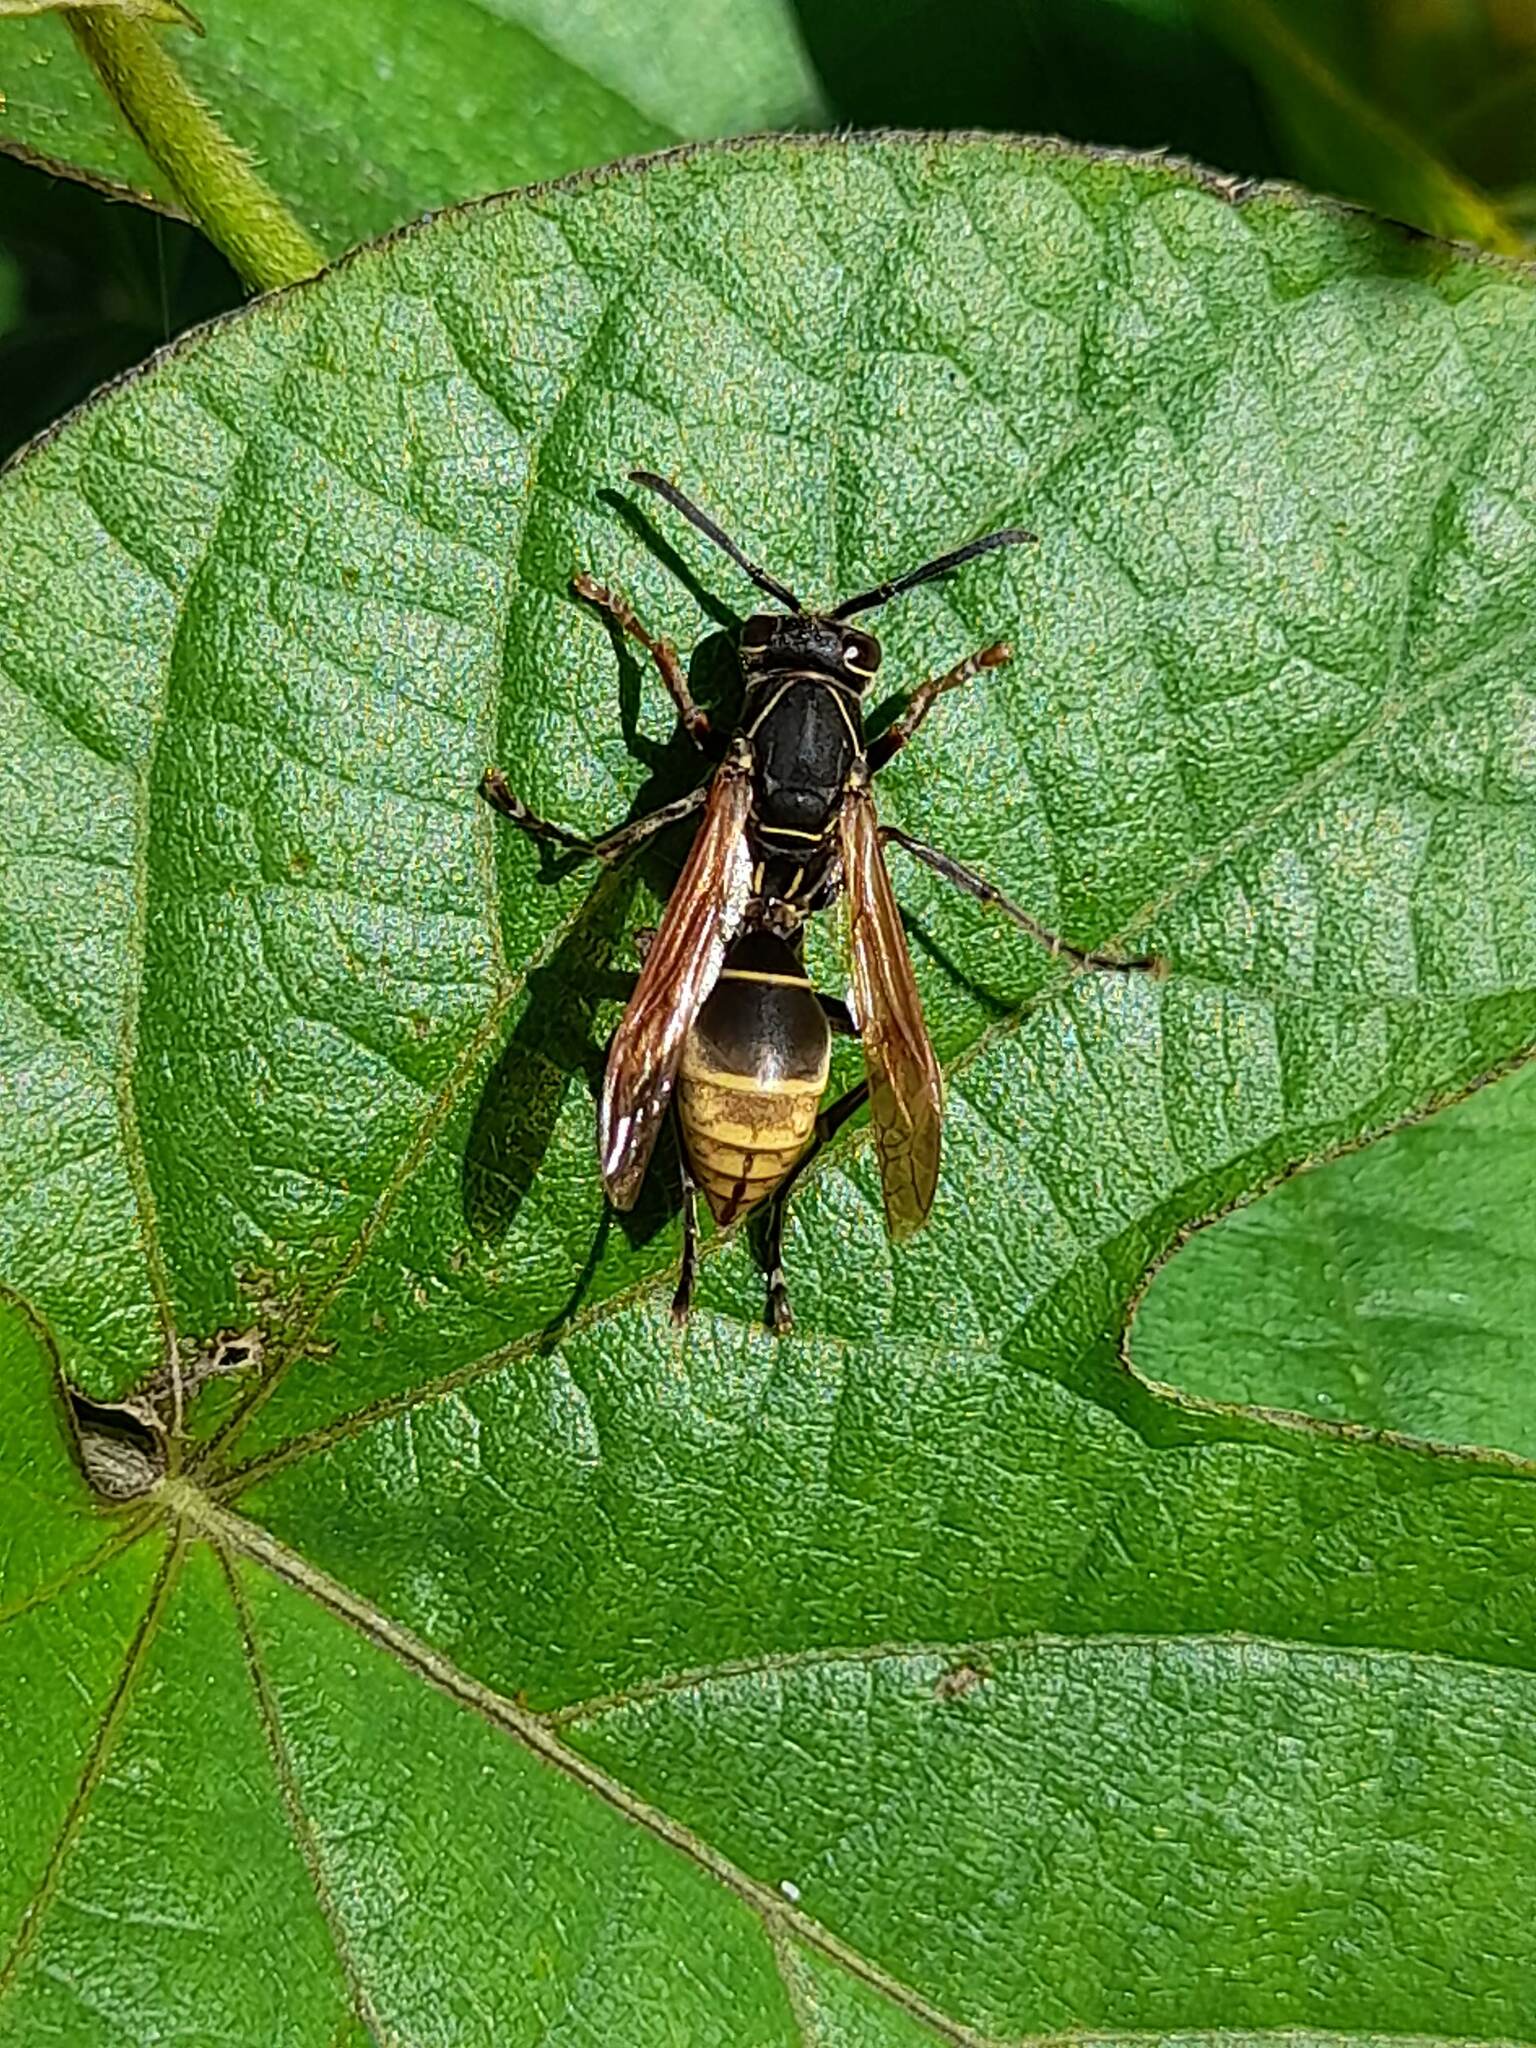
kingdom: Animalia
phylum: Arthropoda
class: Insecta
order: Hymenoptera
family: Eumenidae
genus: Polistes
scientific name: Polistes cinerascens
